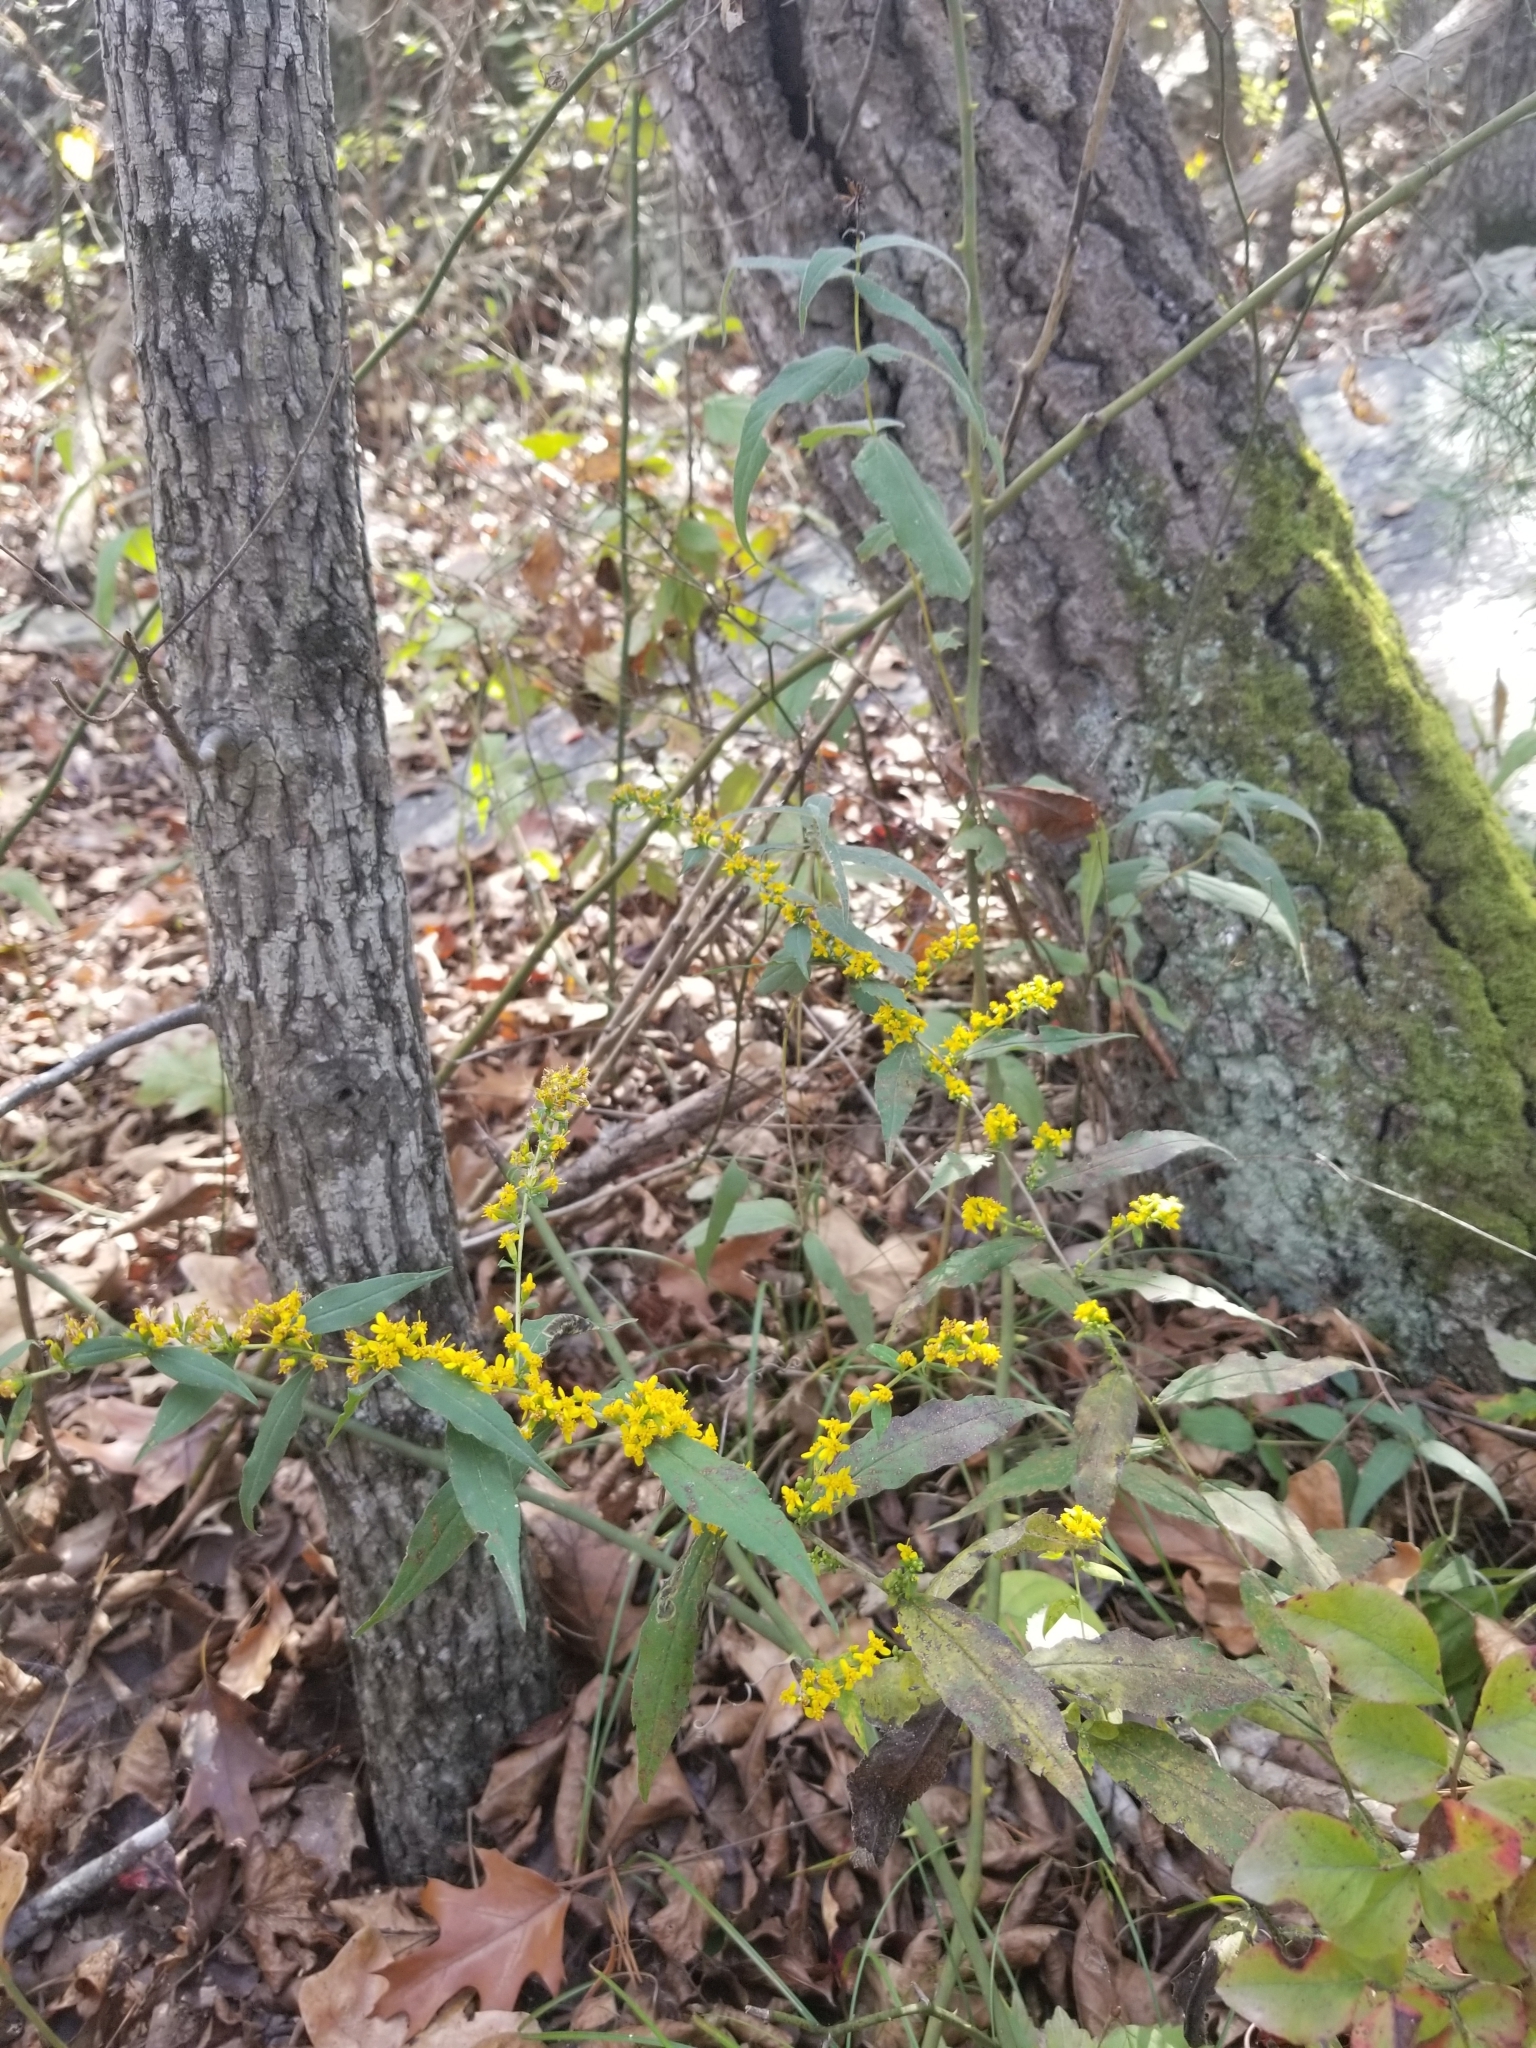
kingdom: Plantae
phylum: Tracheophyta
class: Magnoliopsida
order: Asterales
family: Asteraceae
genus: Solidago
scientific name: Solidago caesia
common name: Woodland goldenrod
